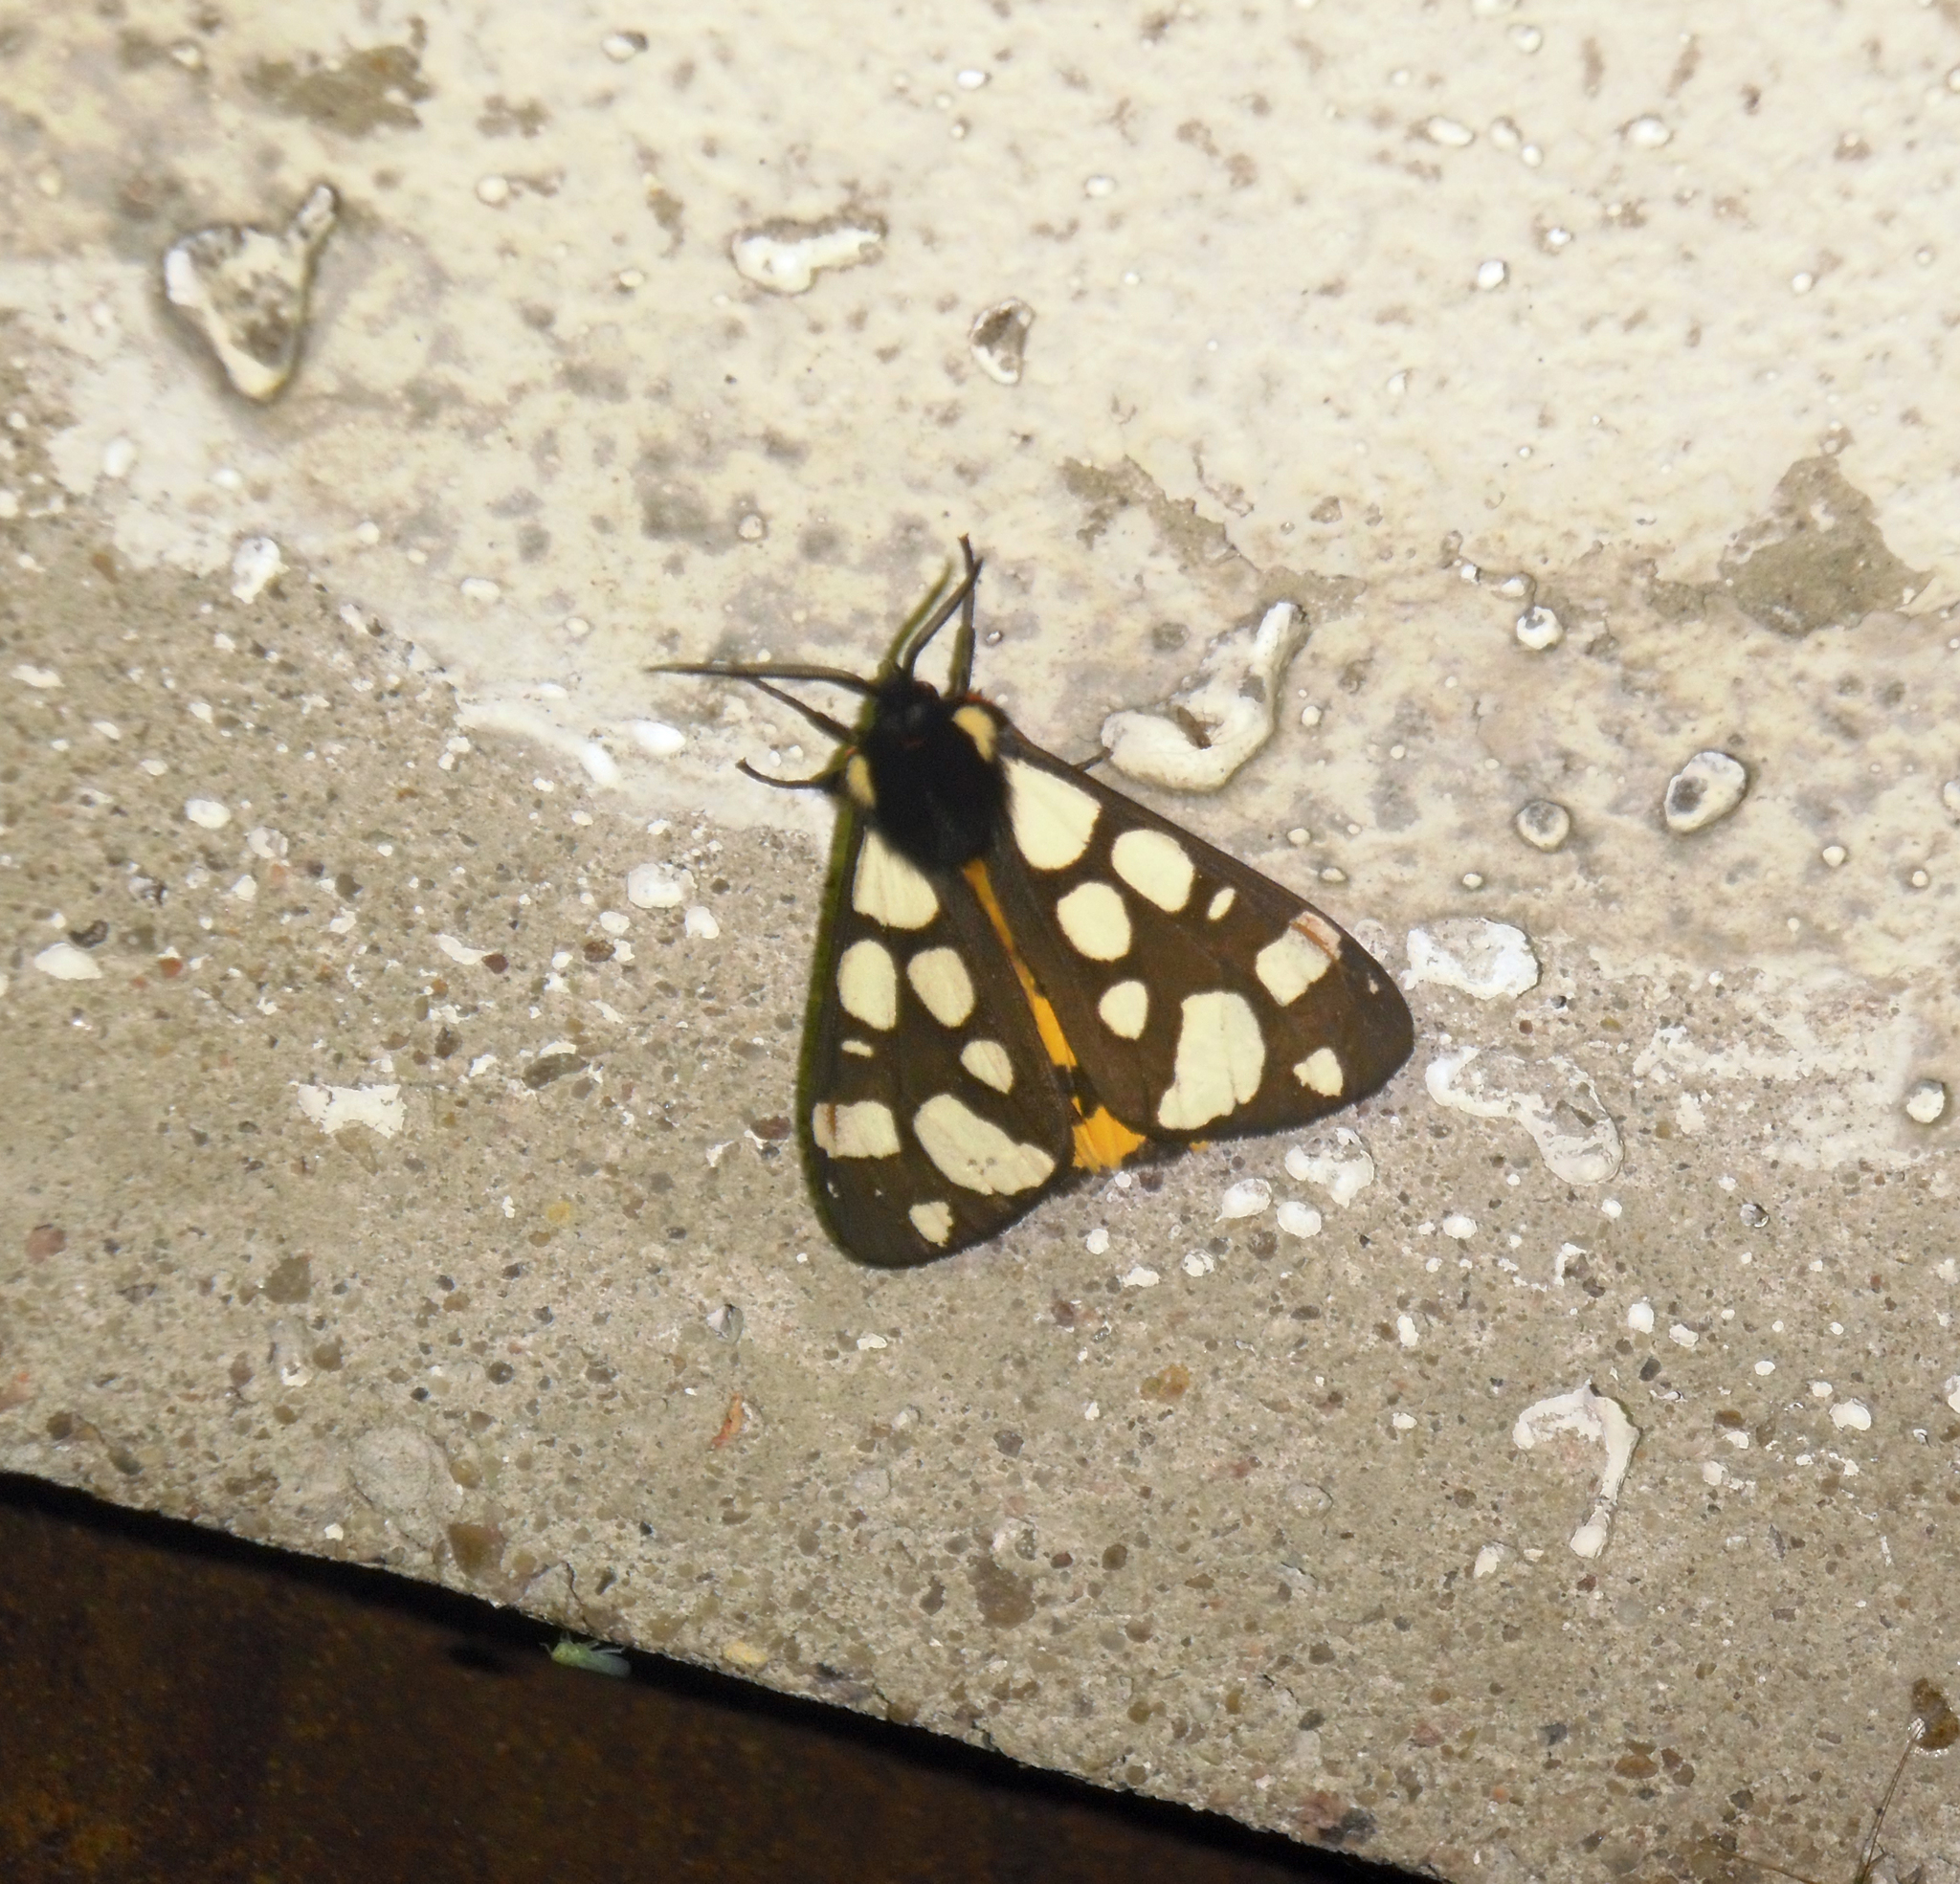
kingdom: Animalia
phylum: Arthropoda
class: Insecta
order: Lepidoptera
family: Erebidae
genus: Epicallia
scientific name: Epicallia villica
